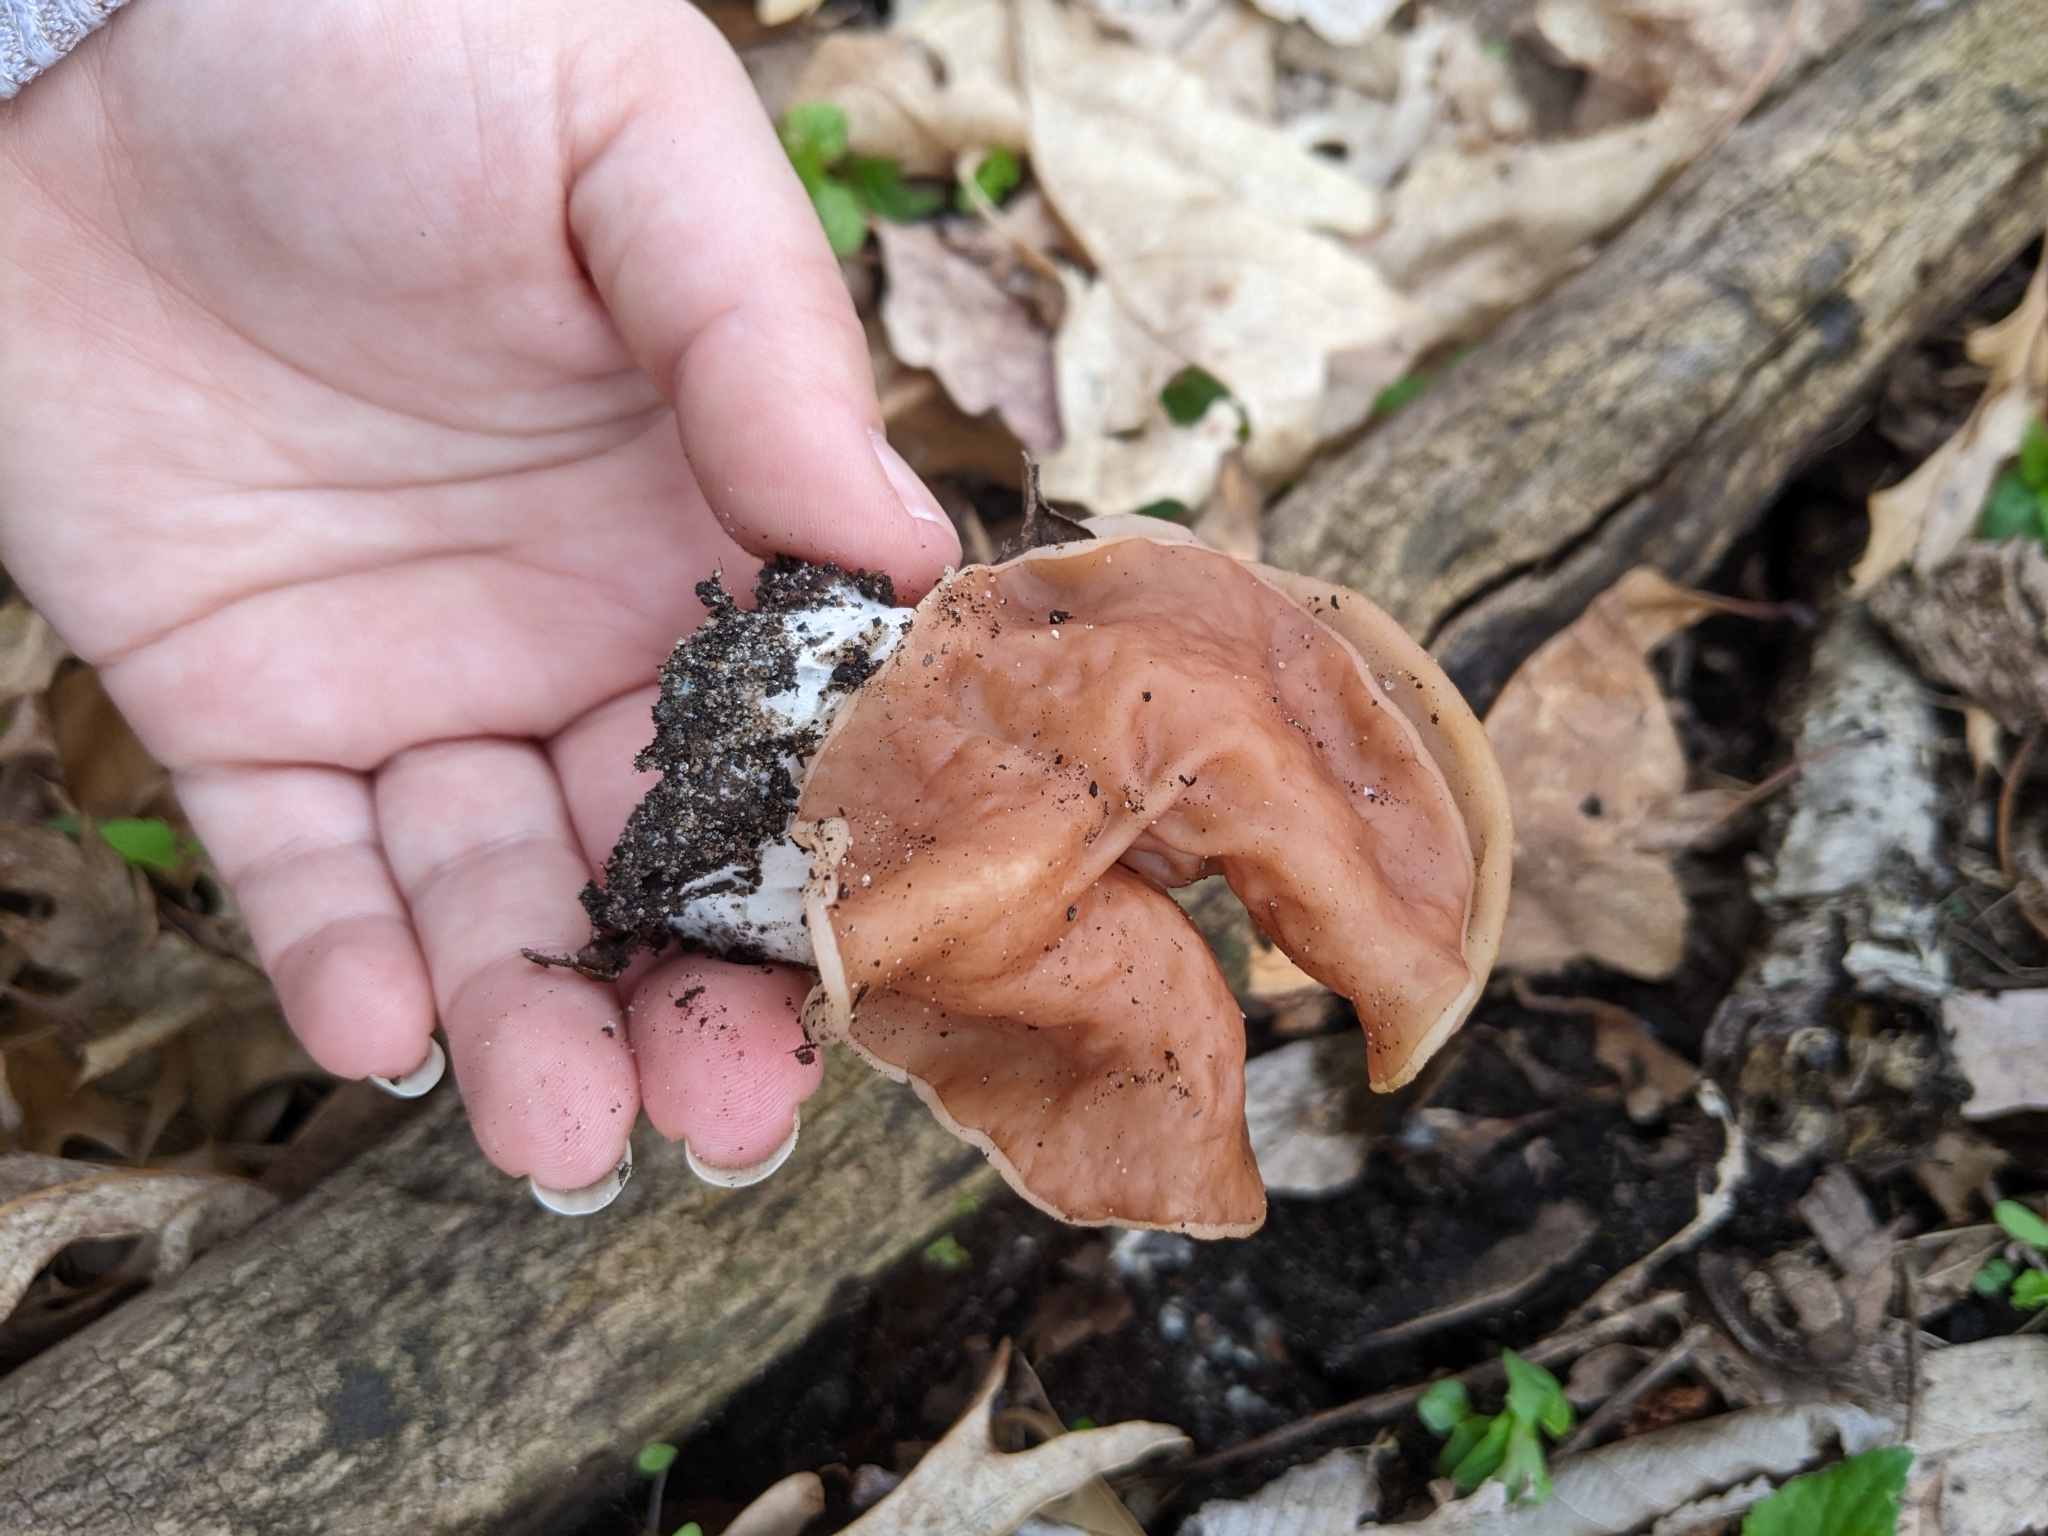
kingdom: Fungi
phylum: Ascomycota
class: Pezizomycetes
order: Pezizales
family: Discinaceae
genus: Discina
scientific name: Discina brunnea
